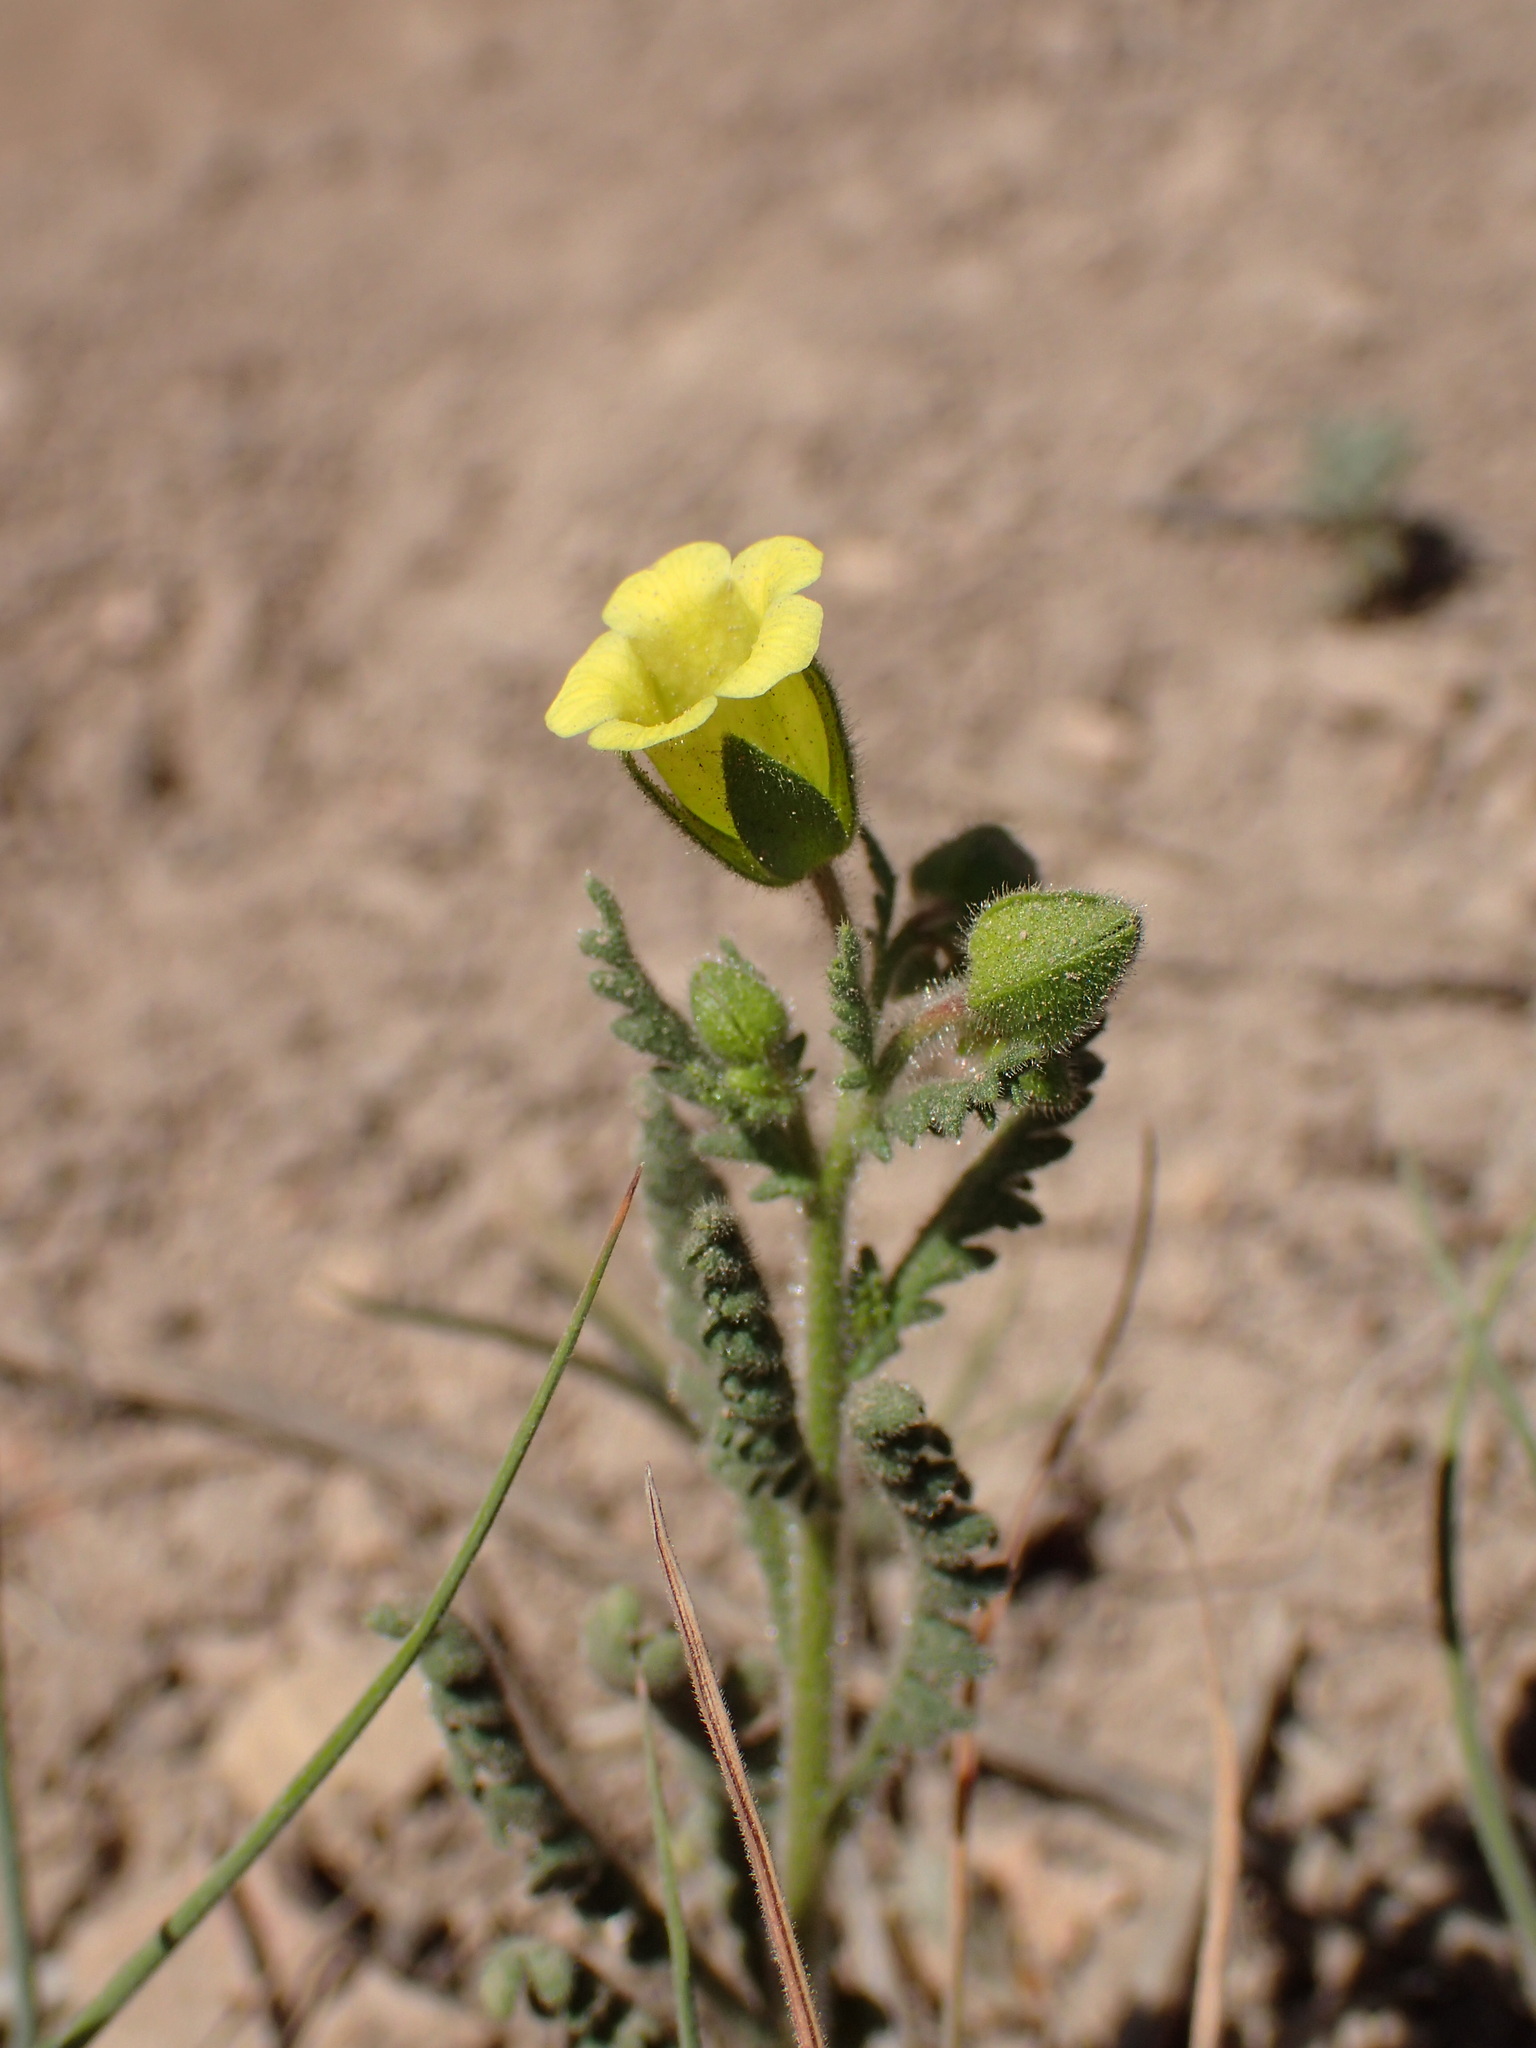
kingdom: Plantae
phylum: Tracheophyta
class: Magnoliopsida
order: Boraginales
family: Hydrophyllaceae
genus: Emmenanthe
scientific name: Emmenanthe penduliflora
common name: Whispering-bells
